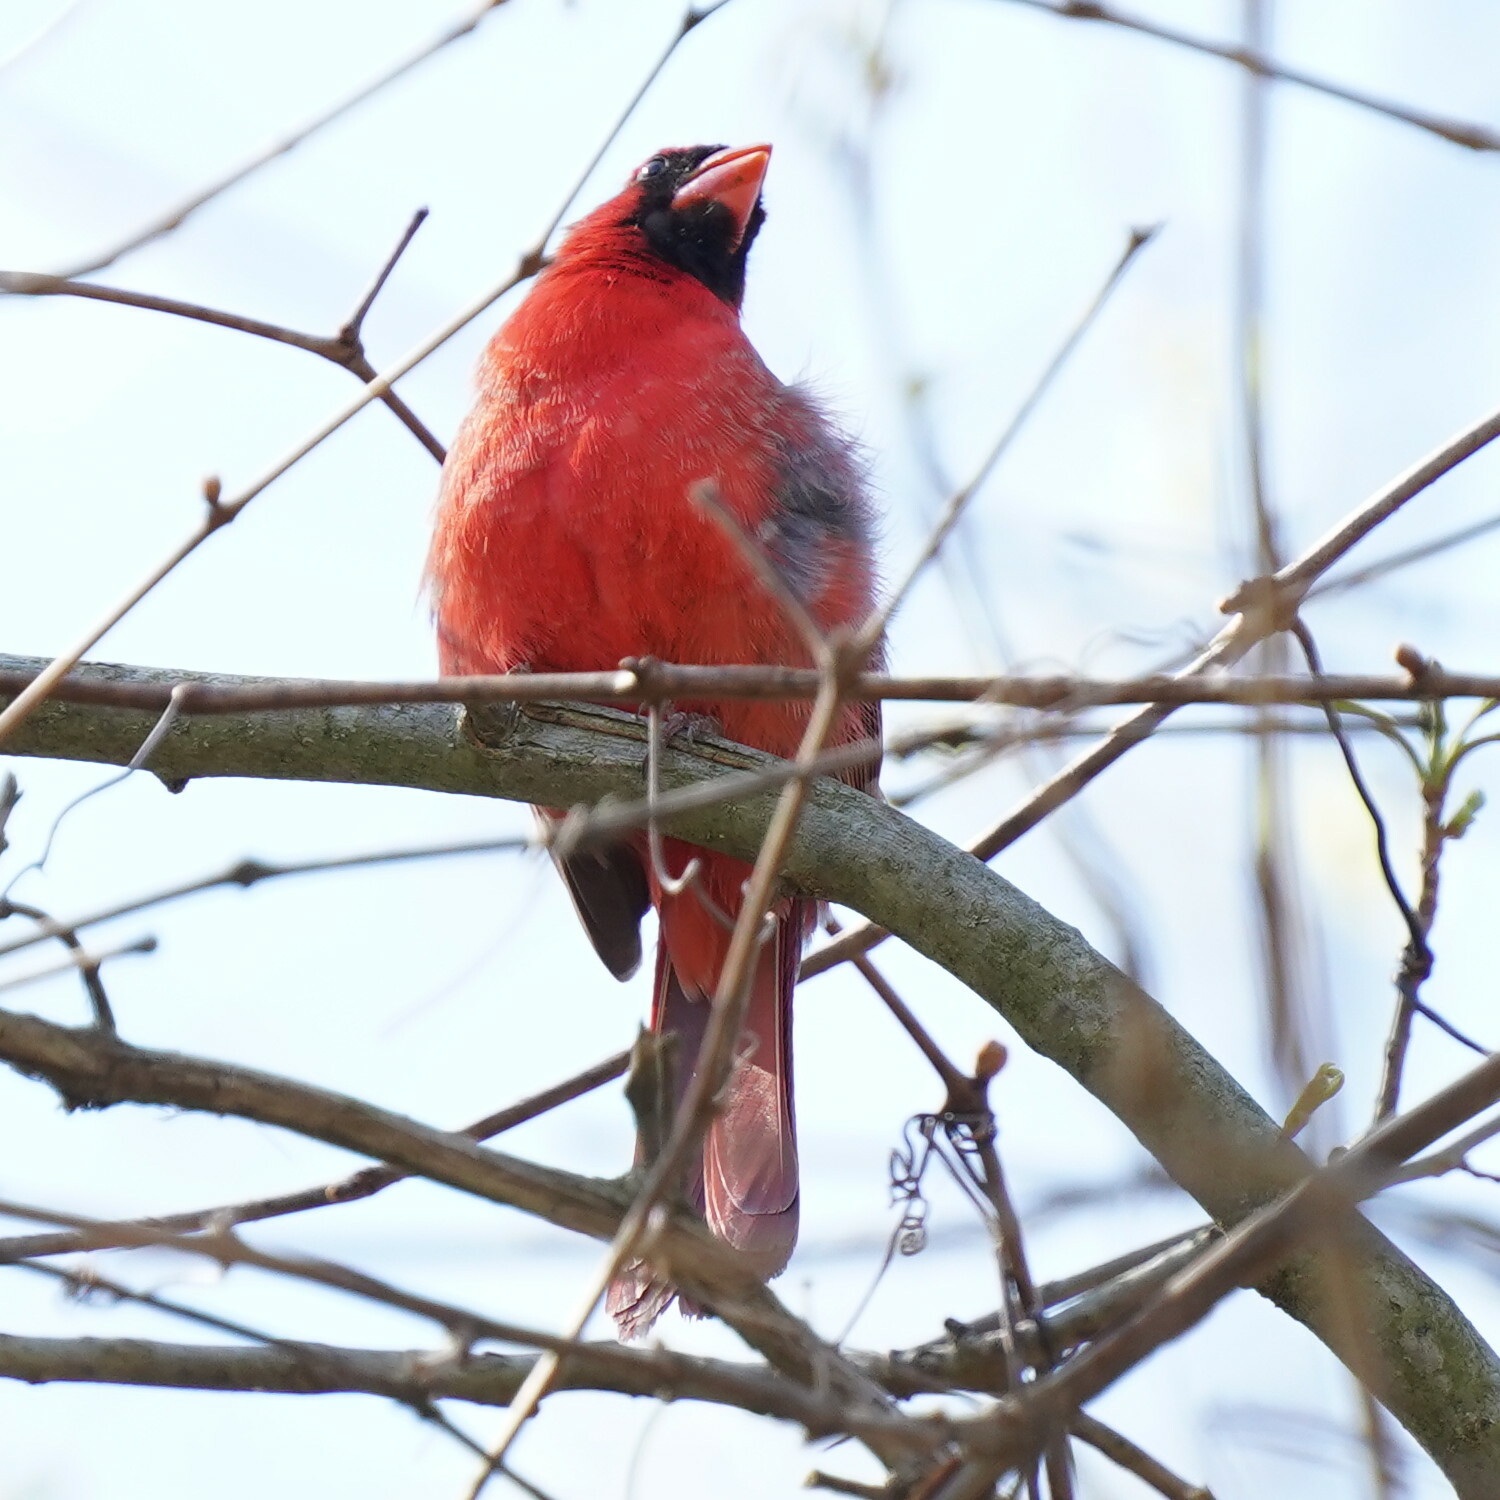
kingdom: Animalia
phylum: Chordata
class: Aves
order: Passeriformes
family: Cardinalidae
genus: Cardinalis
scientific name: Cardinalis cardinalis
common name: Northern cardinal
